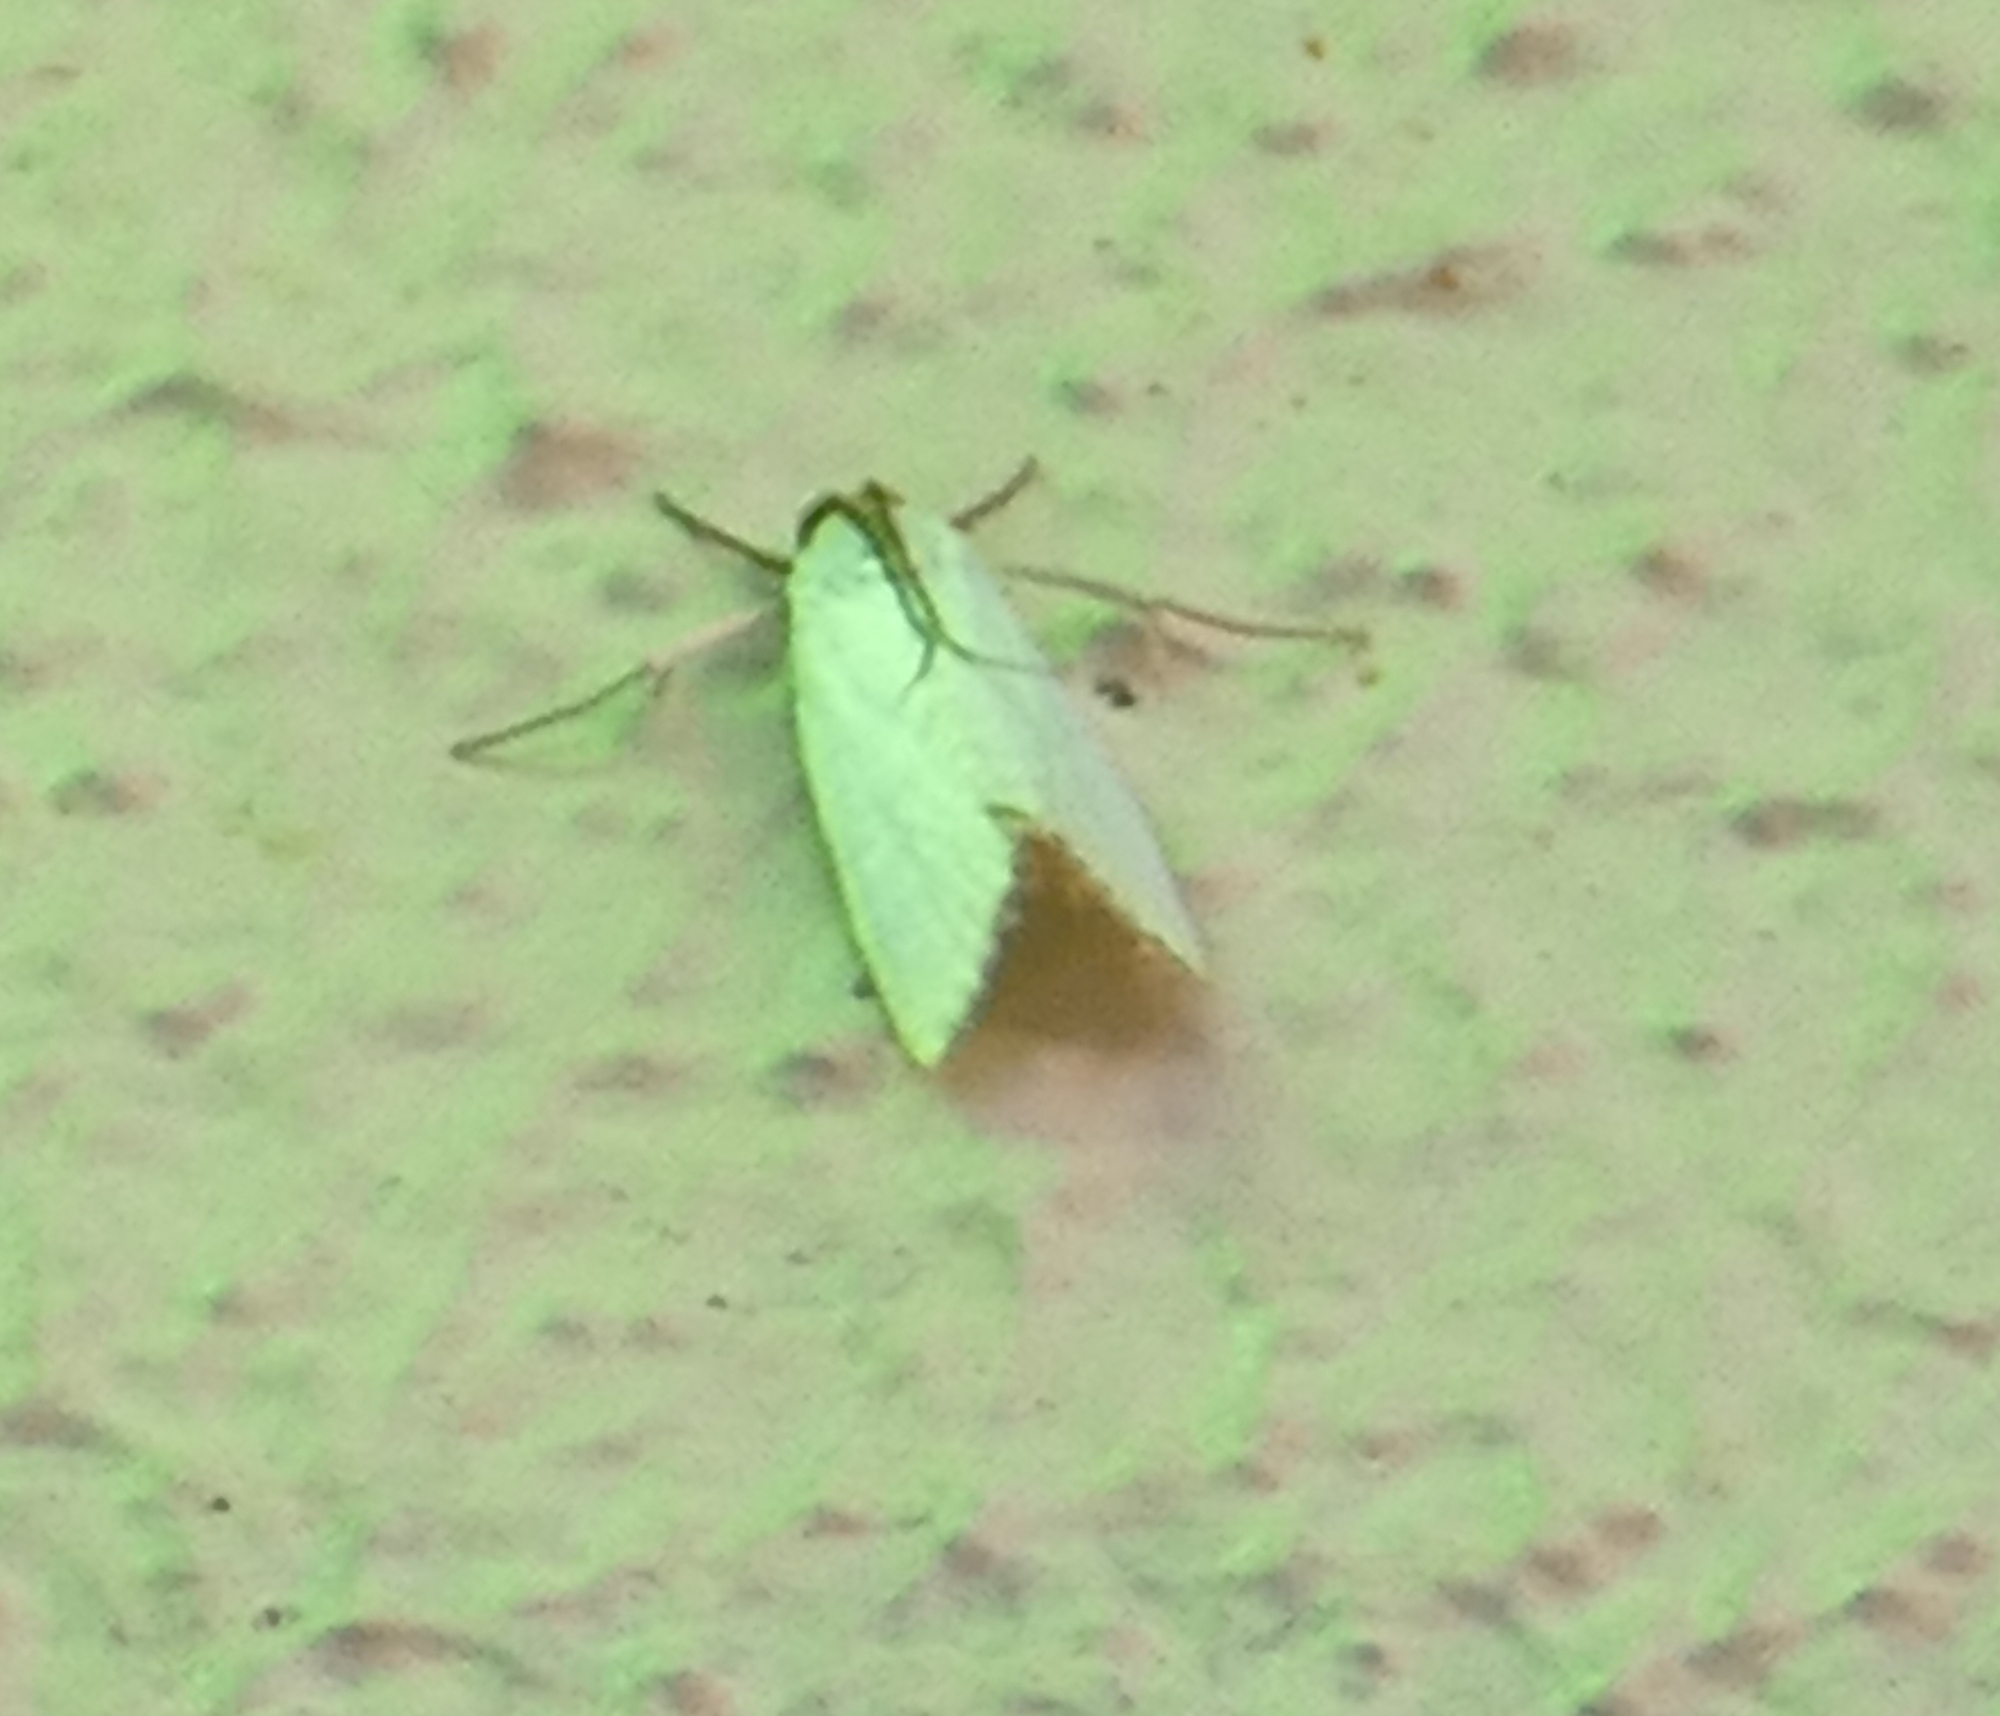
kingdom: Animalia
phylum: Arthropoda
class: Insecta
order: Lepidoptera
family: Crambidae
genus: Argyria
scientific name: Argyria nivalis
